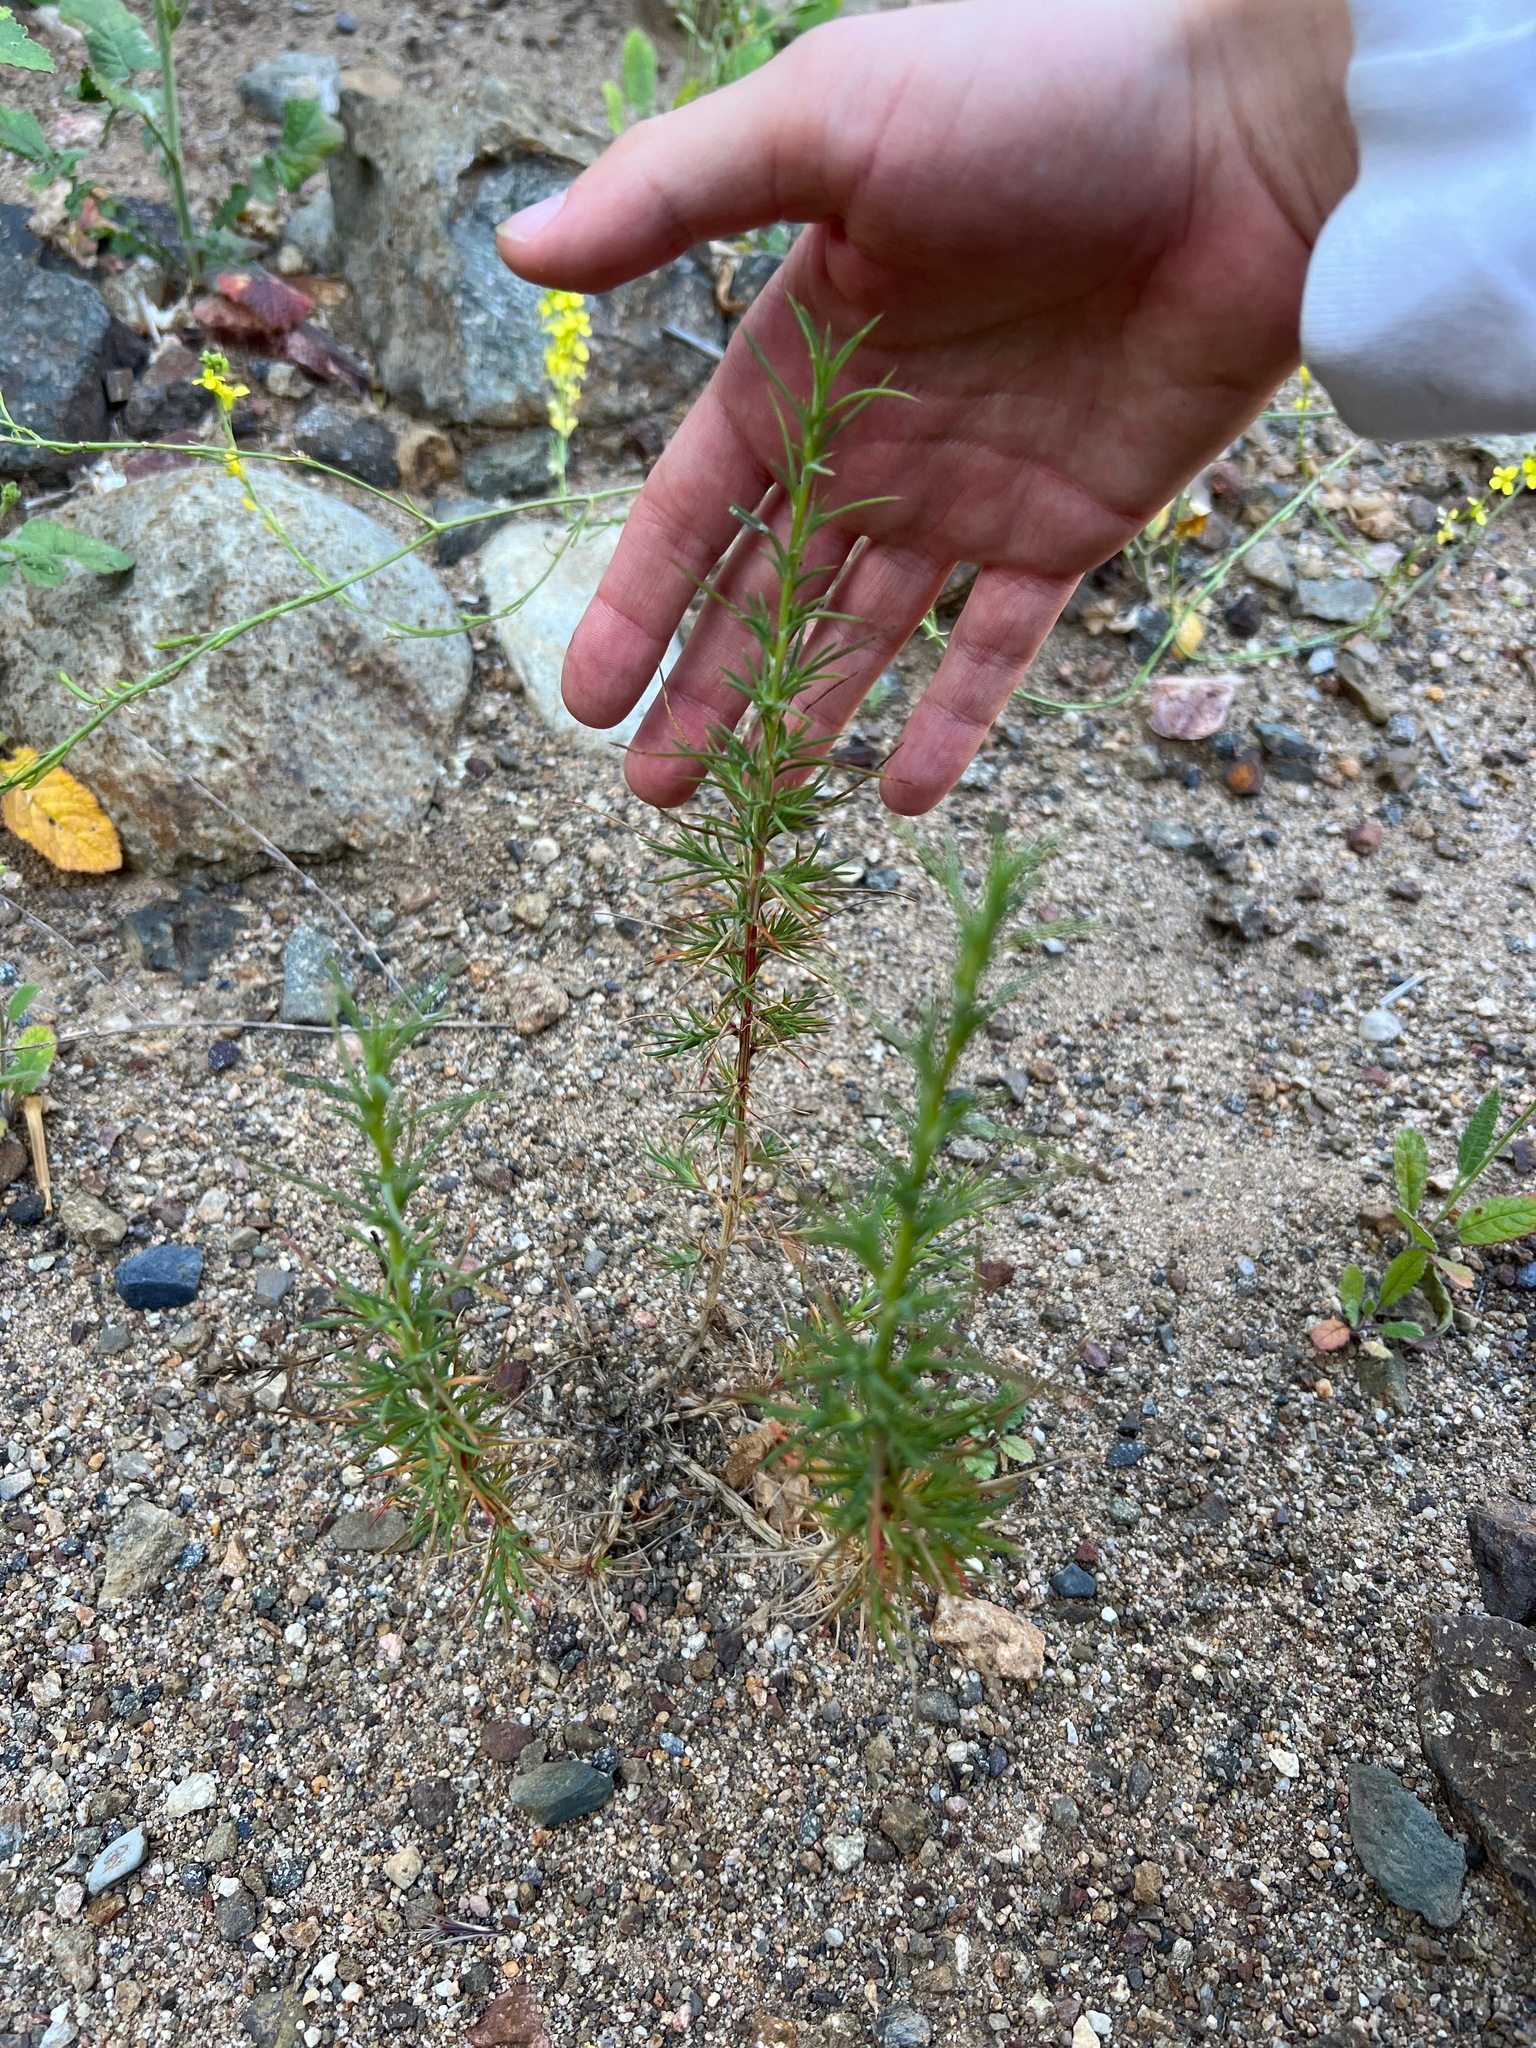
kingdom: Plantae
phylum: Tracheophyta
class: Magnoliopsida
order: Caryophyllales
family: Amaranthaceae
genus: Salsola
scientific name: Salsola
